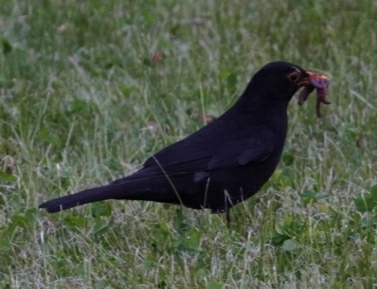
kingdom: Animalia
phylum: Chordata
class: Aves
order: Passeriformes
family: Turdidae
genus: Turdus
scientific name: Turdus merula
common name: Common blackbird
